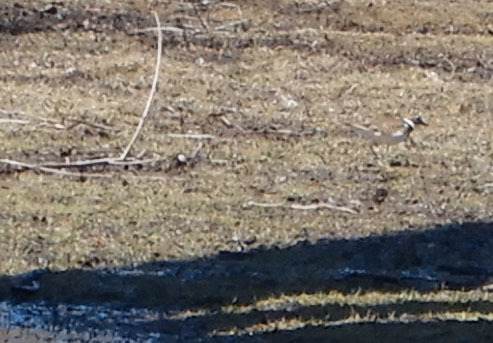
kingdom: Animalia
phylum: Chordata
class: Aves
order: Charadriiformes
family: Charadriidae
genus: Charadrius
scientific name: Charadrius vociferus
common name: Killdeer
